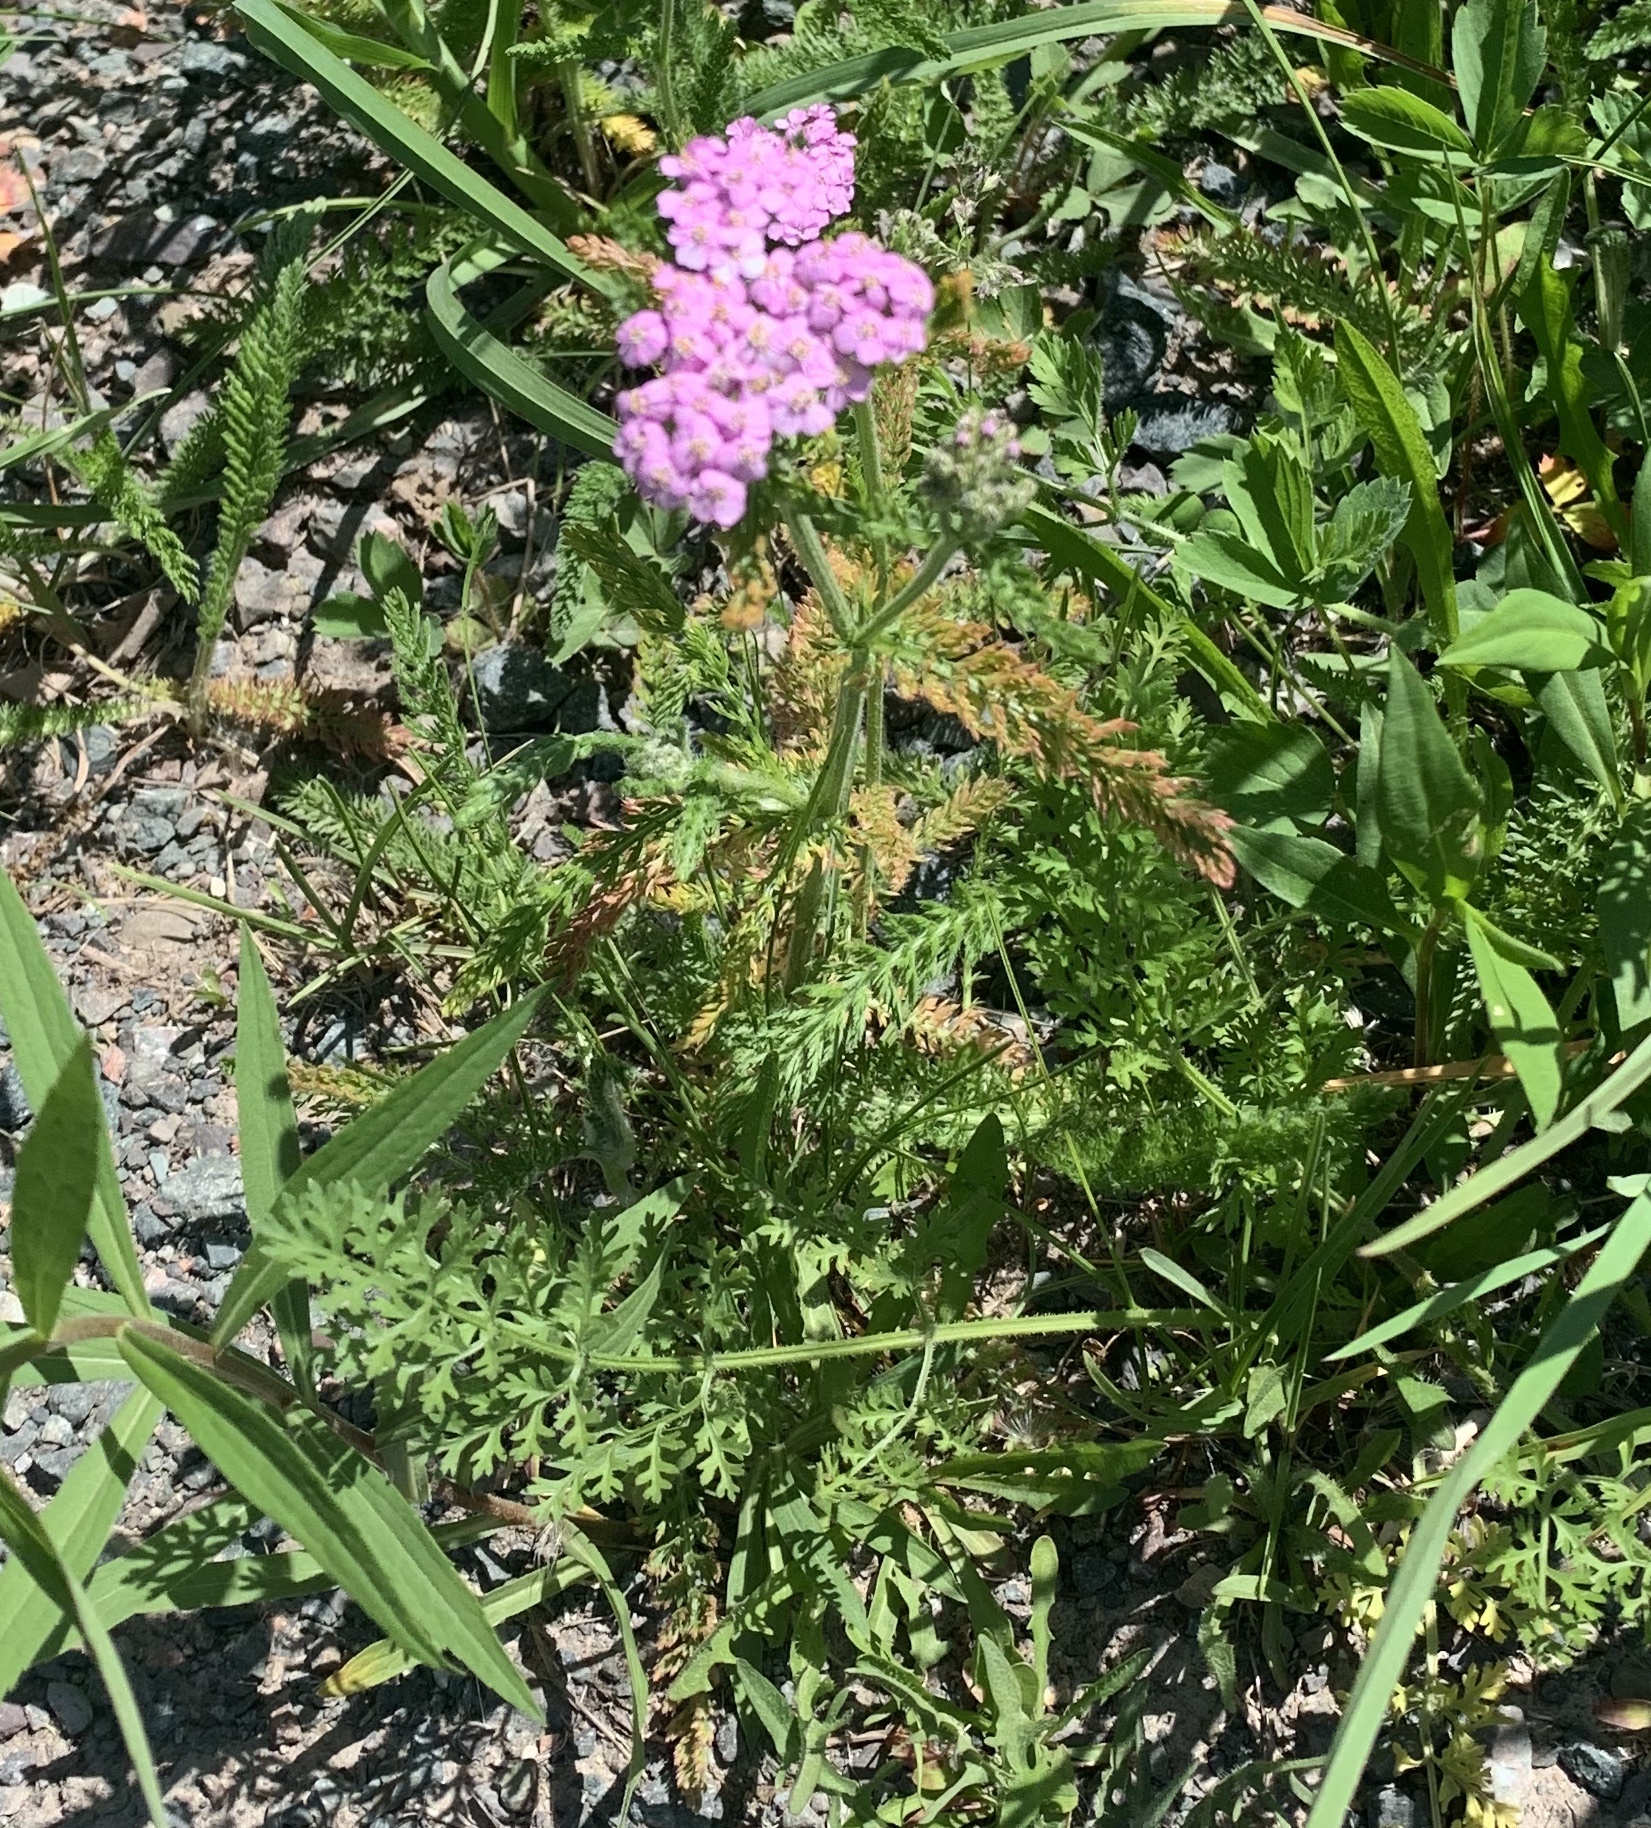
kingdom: Plantae
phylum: Tracheophyta
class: Magnoliopsida
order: Asterales
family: Asteraceae
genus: Achillea
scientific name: Achillea millefolium
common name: Yarrow
